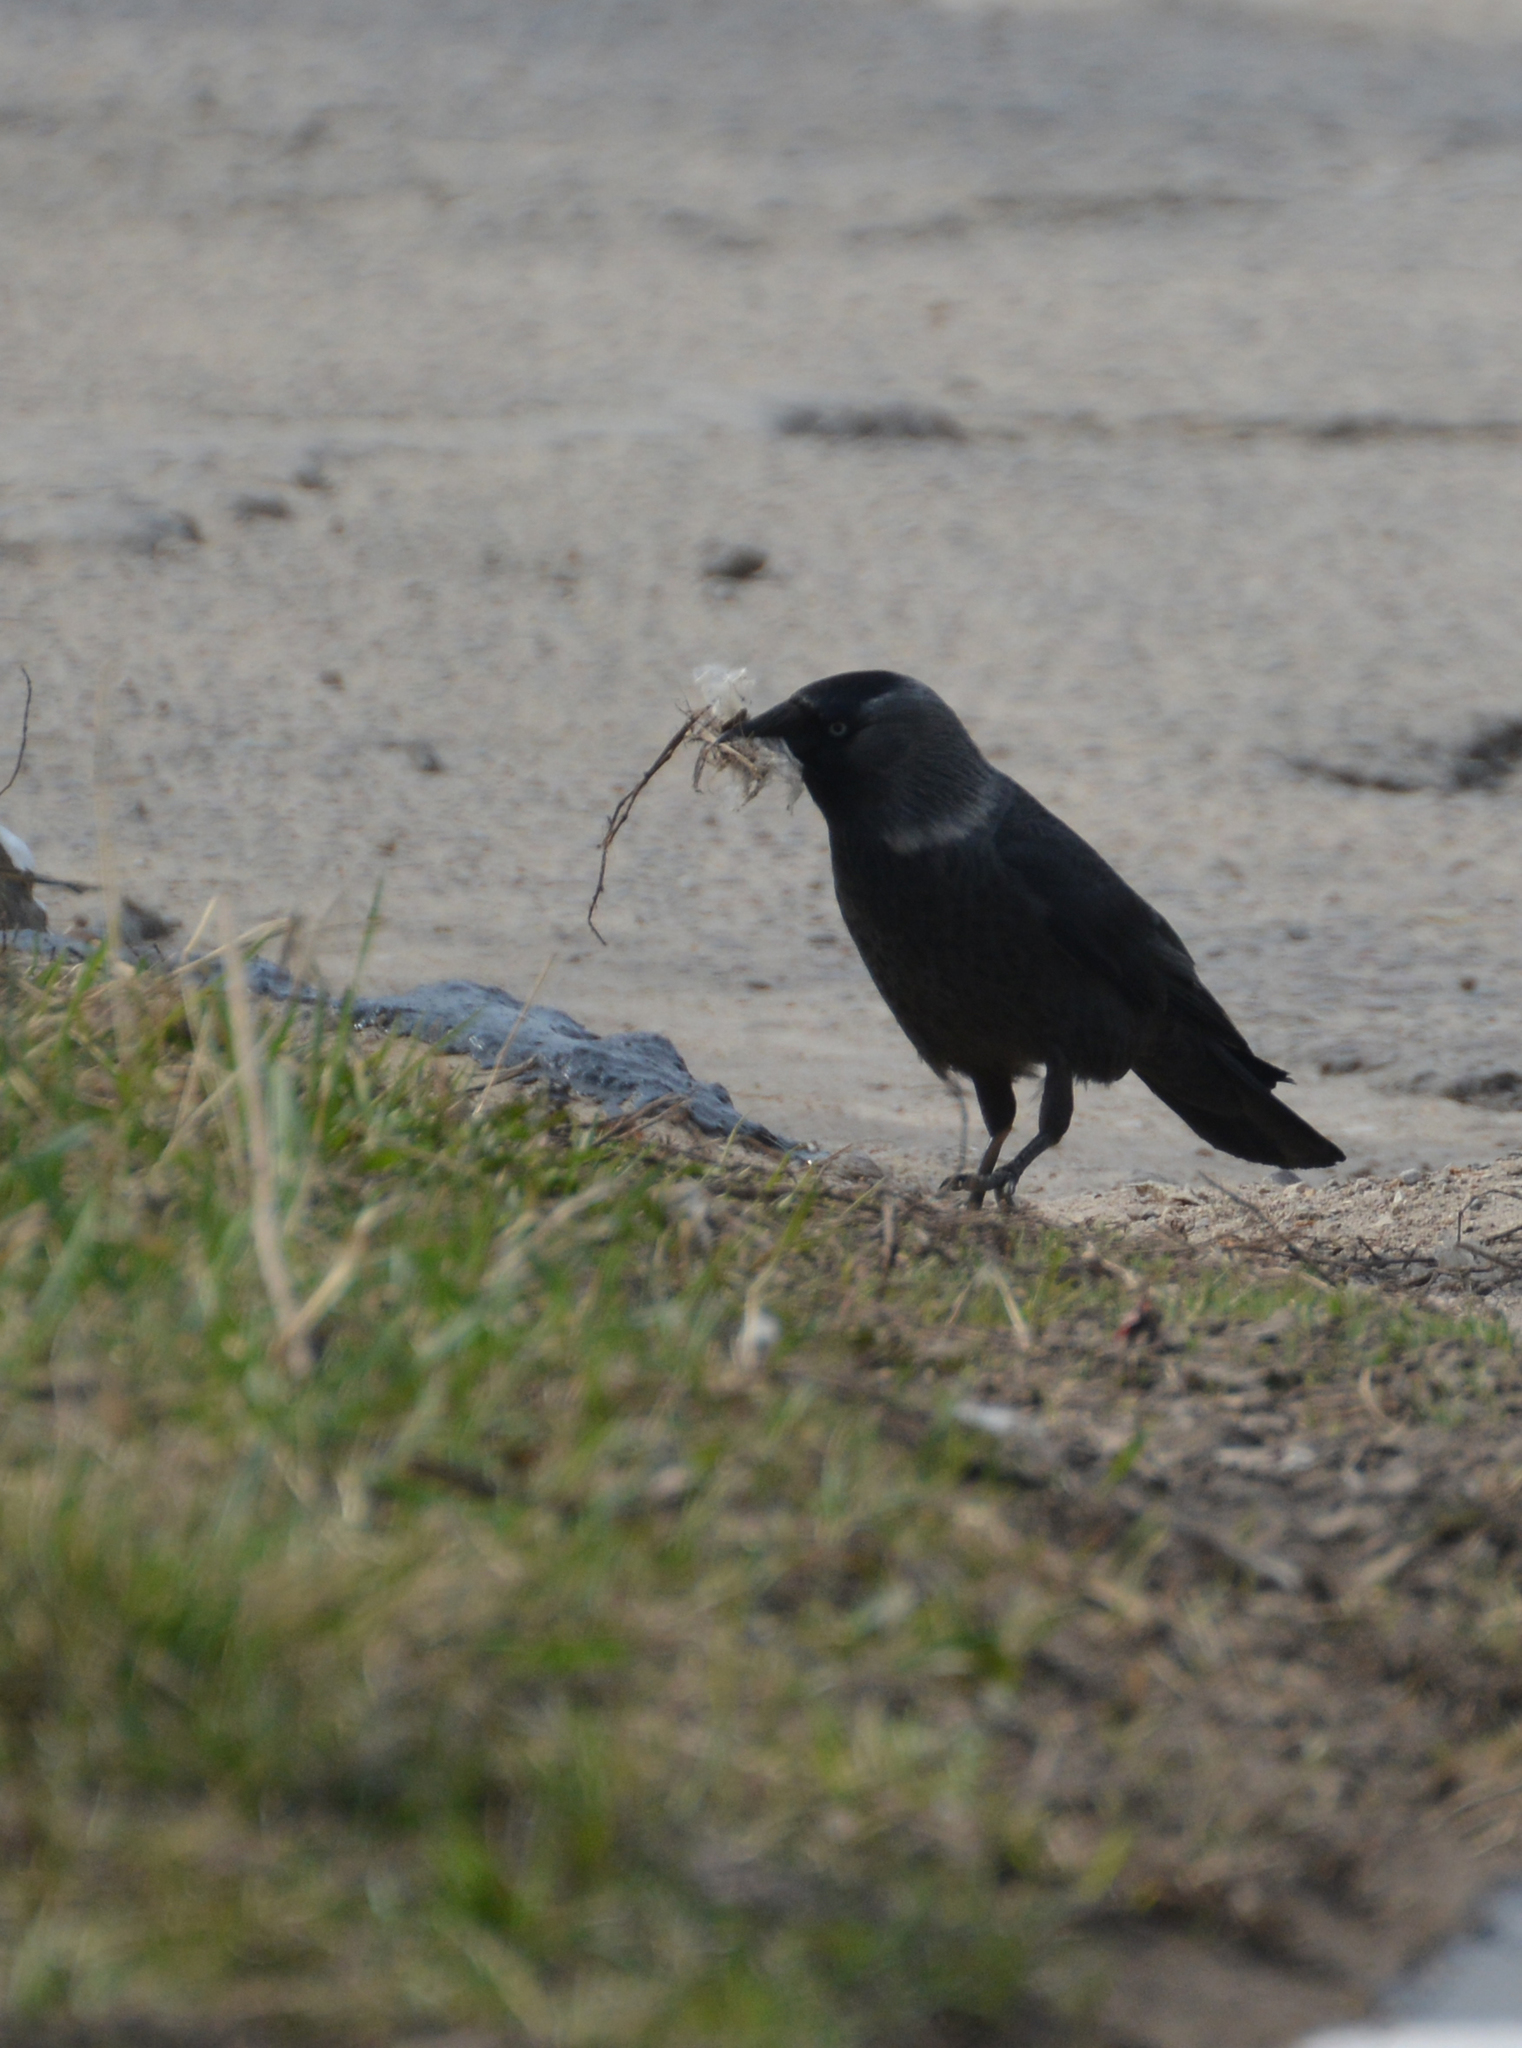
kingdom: Animalia
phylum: Chordata
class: Aves
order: Passeriformes
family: Corvidae
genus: Coloeus
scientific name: Coloeus monedula
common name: Western jackdaw
